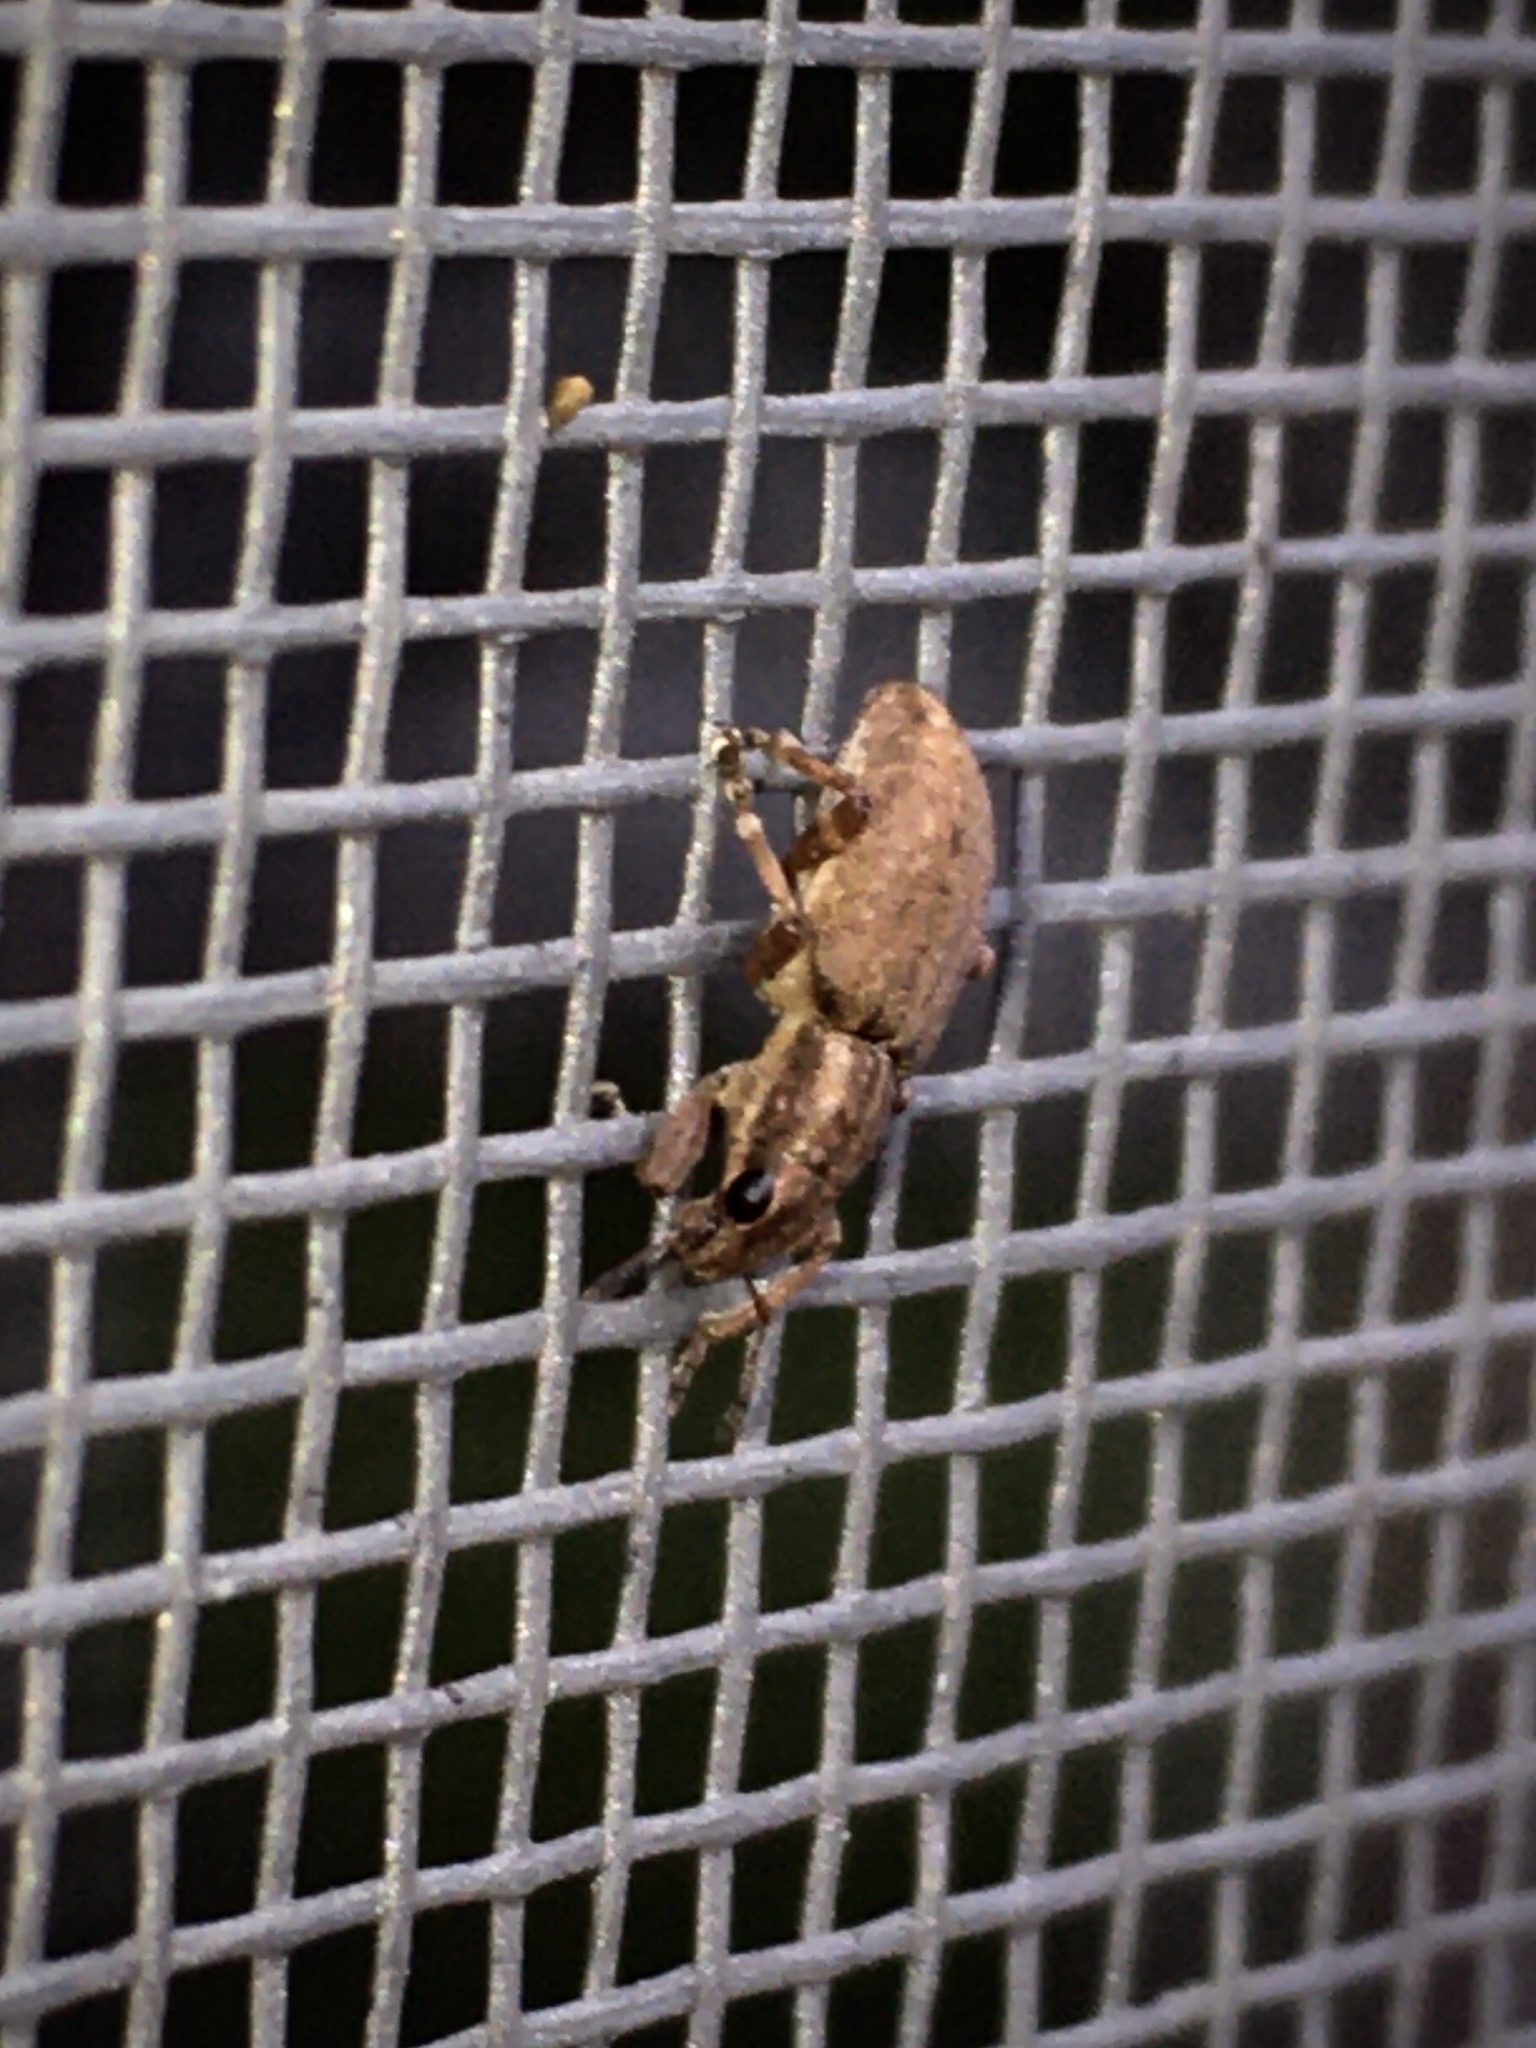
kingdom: Animalia
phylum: Arthropoda
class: Insecta
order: Coleoptera
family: Curculionidae
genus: Sitona
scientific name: Sitona obsoletus
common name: Weevil
